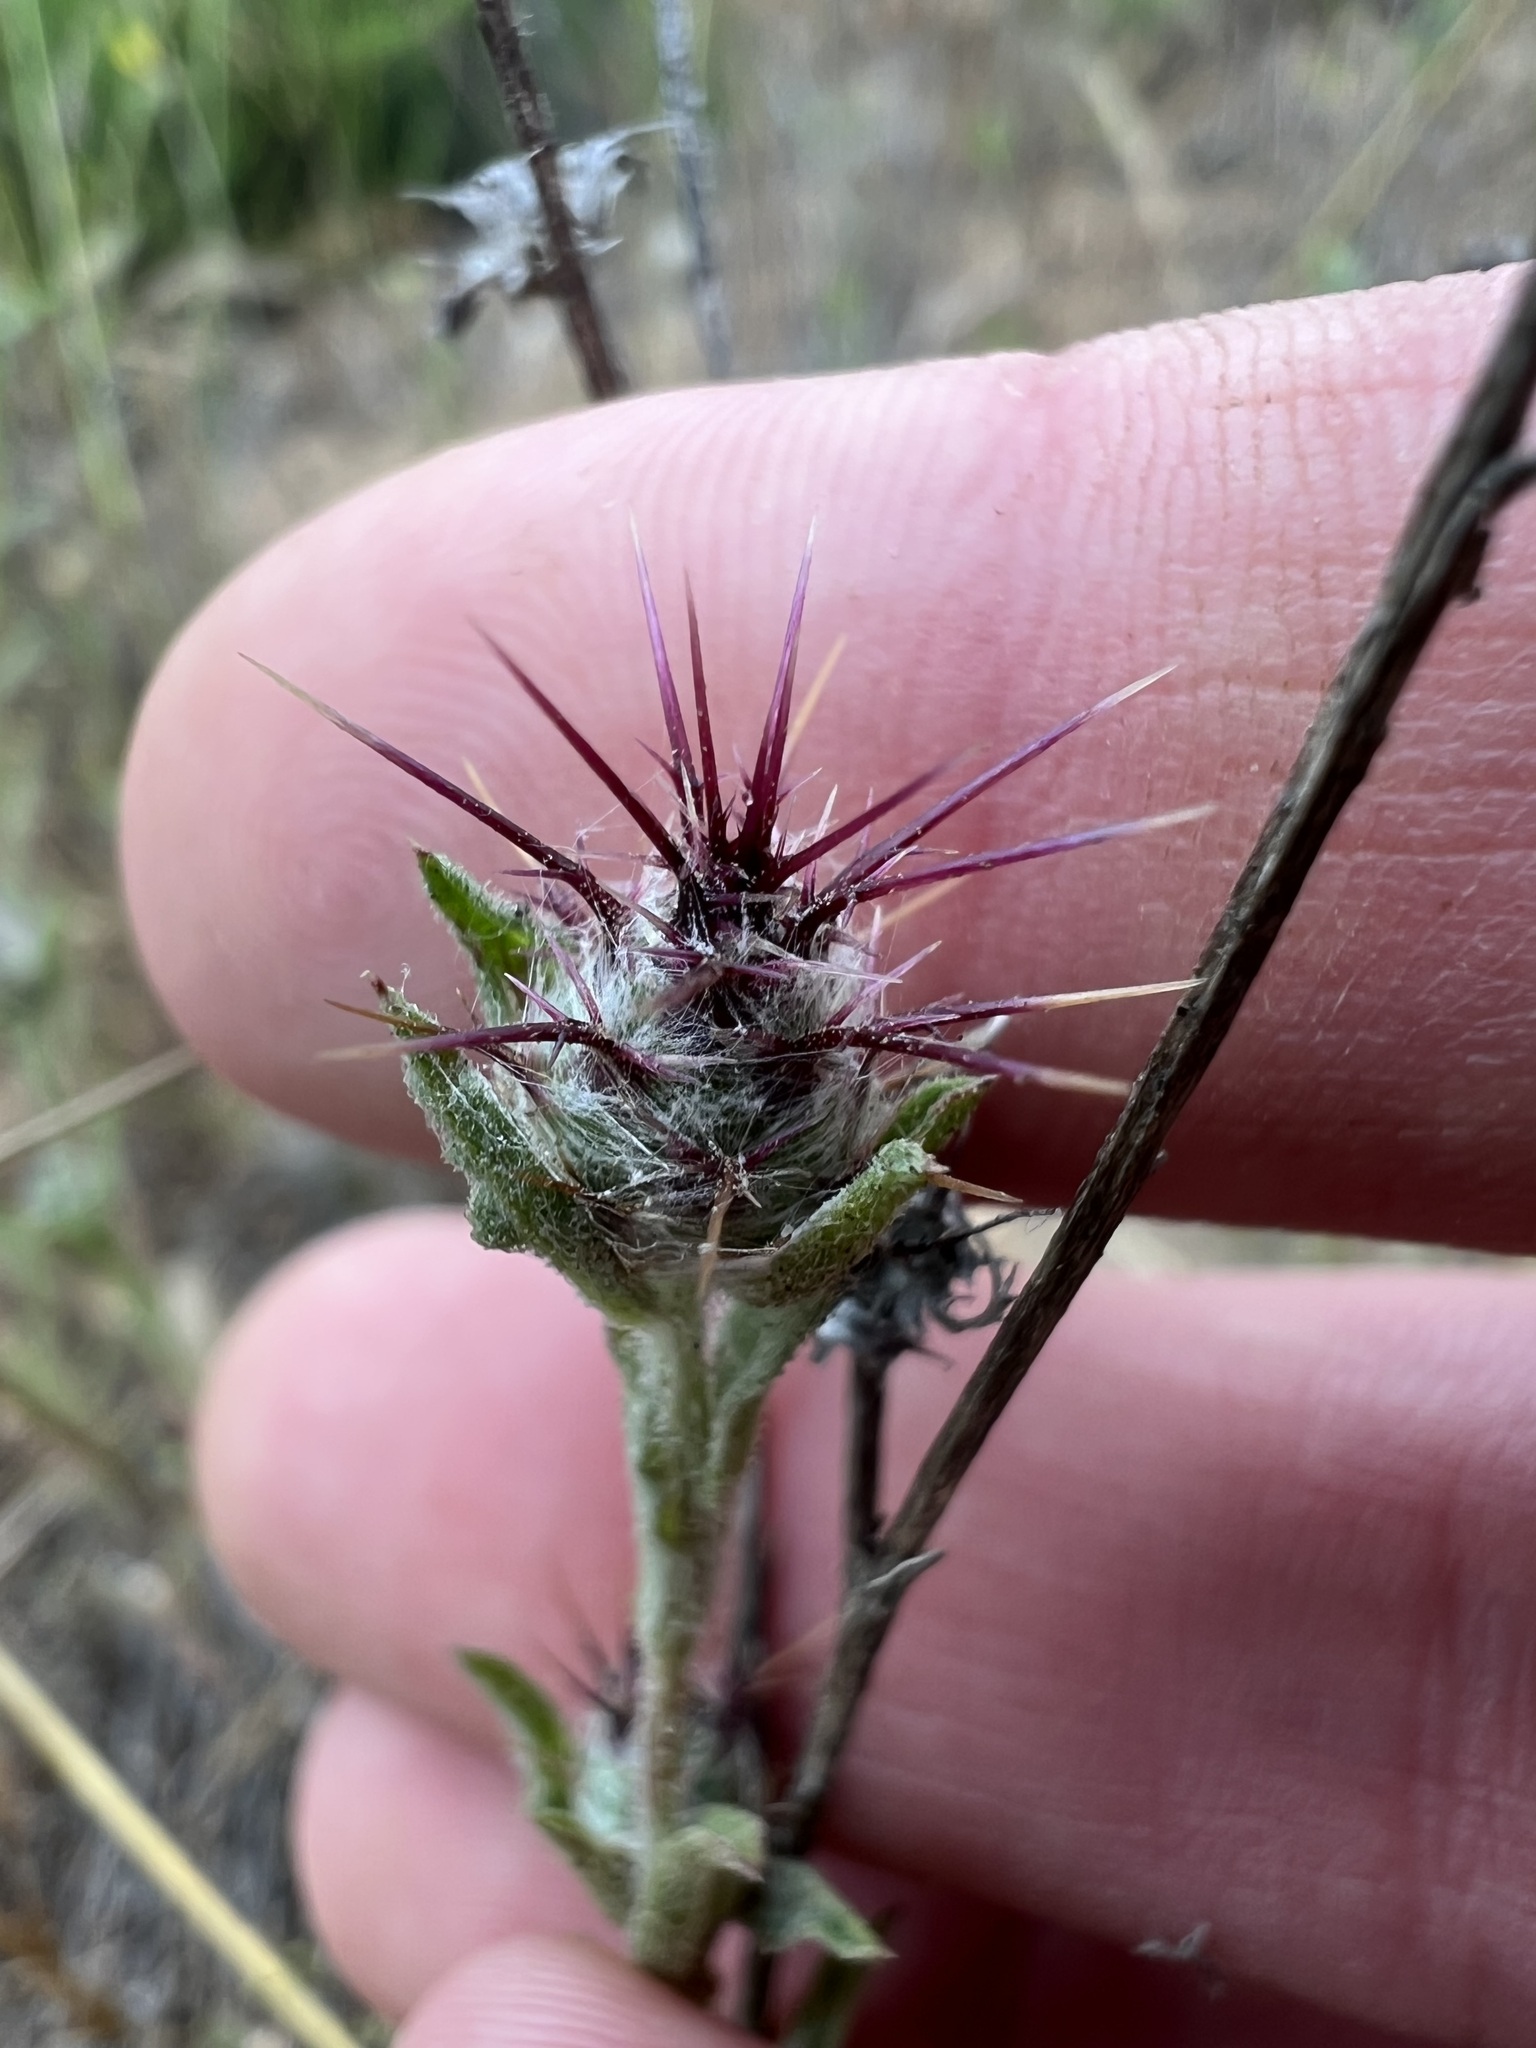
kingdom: Plantae
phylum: Tracheophyta
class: Magnoliopsida
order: Asterales
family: Asteraceae
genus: Centaurea
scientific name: Centaurea melitensis
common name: Maltese star-thistle
